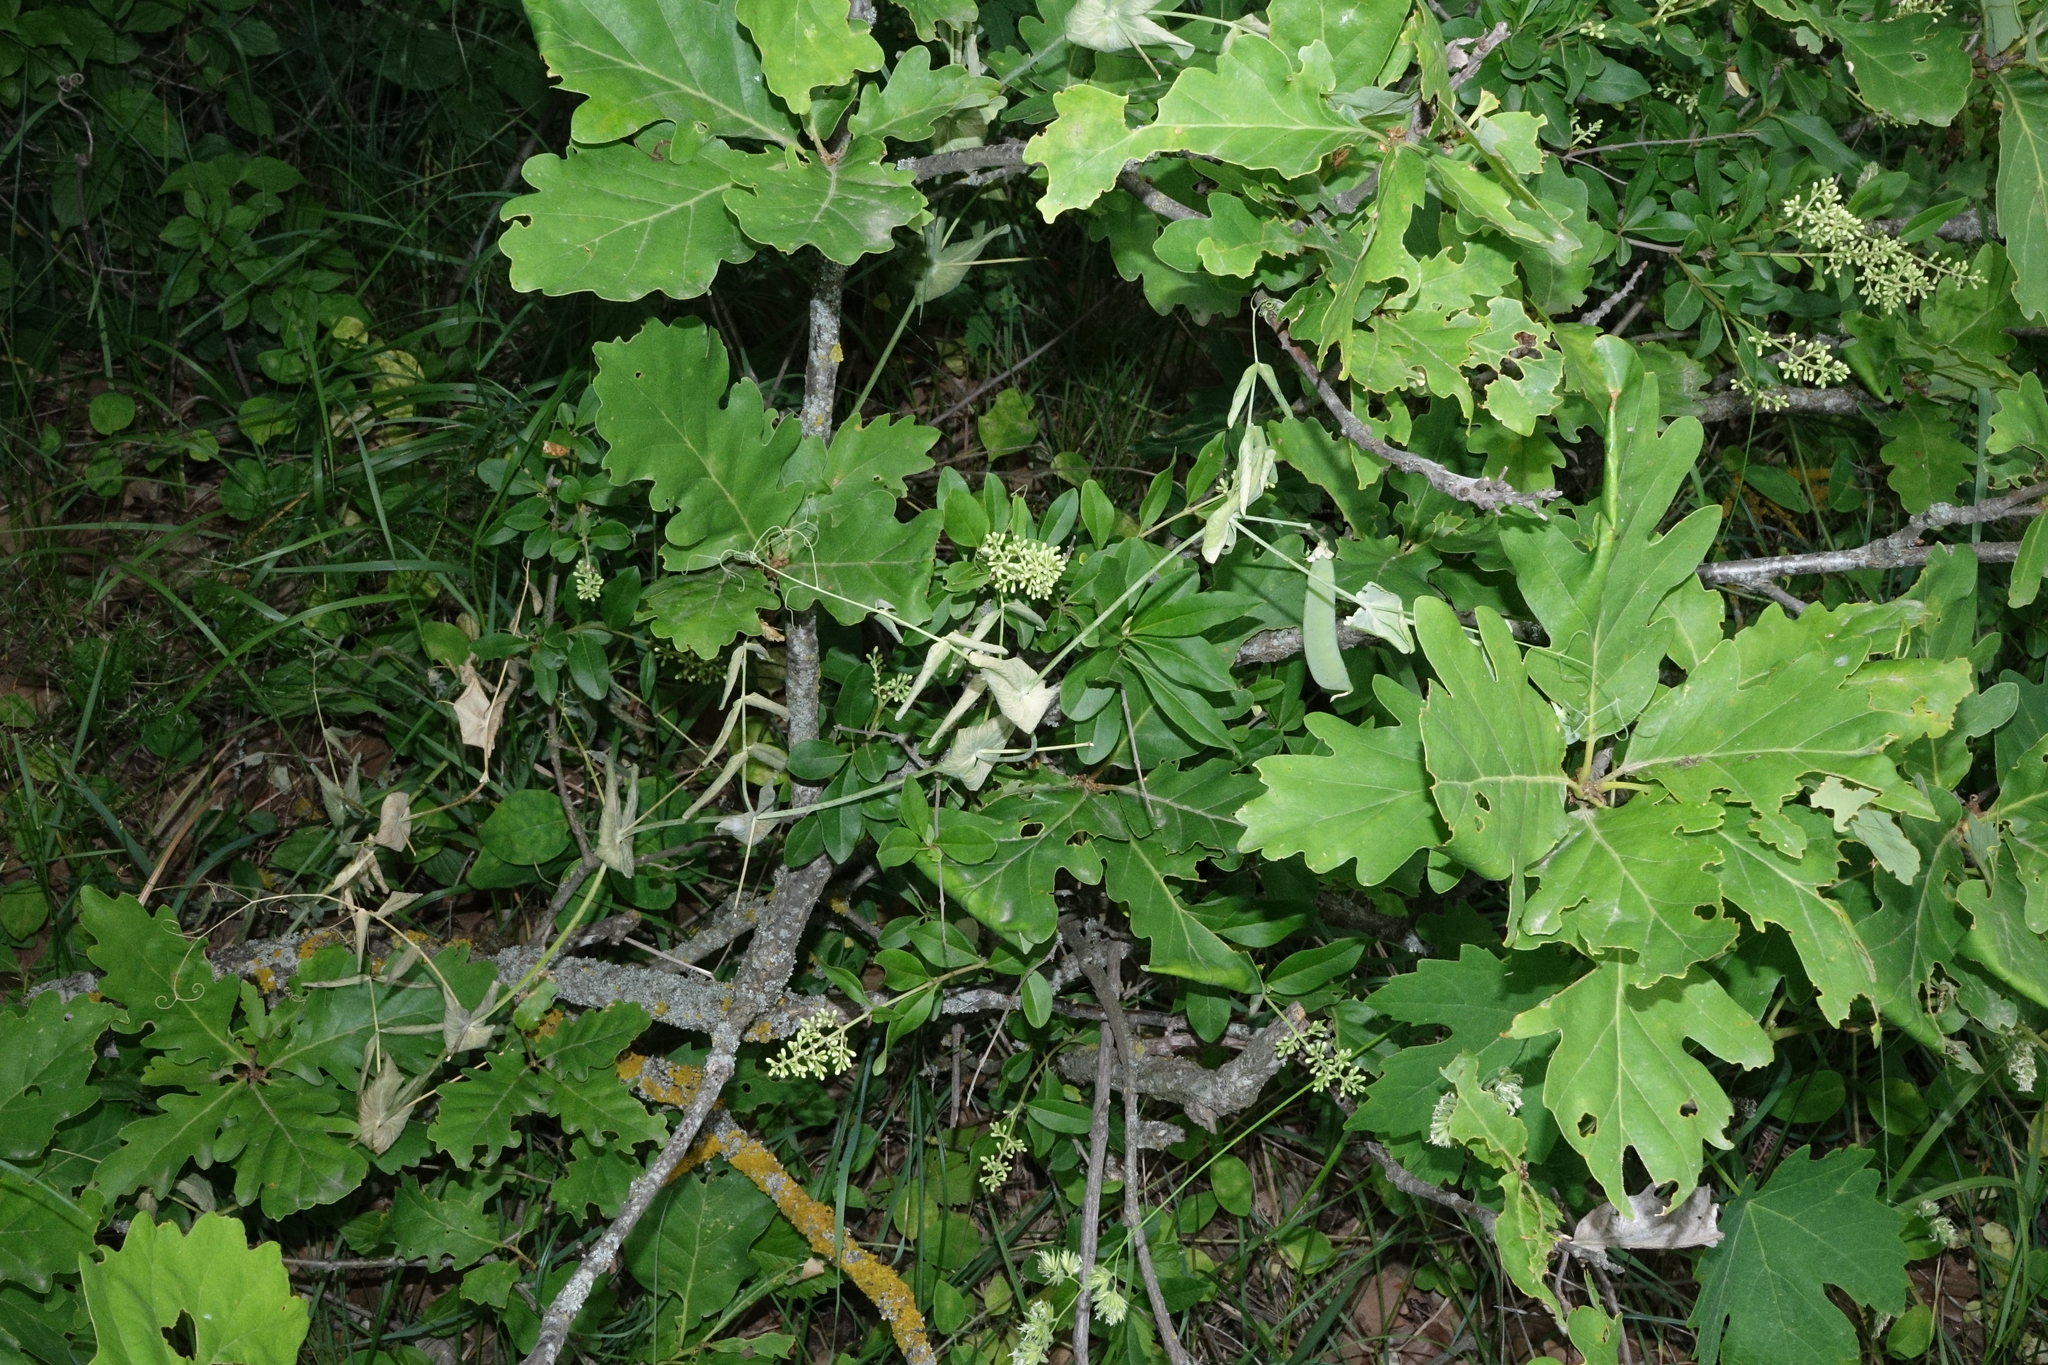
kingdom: Plantae
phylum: Tracheophyta
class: Magnoliopsida
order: Fabales
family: Fabaceae
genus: Lathyrus
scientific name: Lathyrus oleraceus
